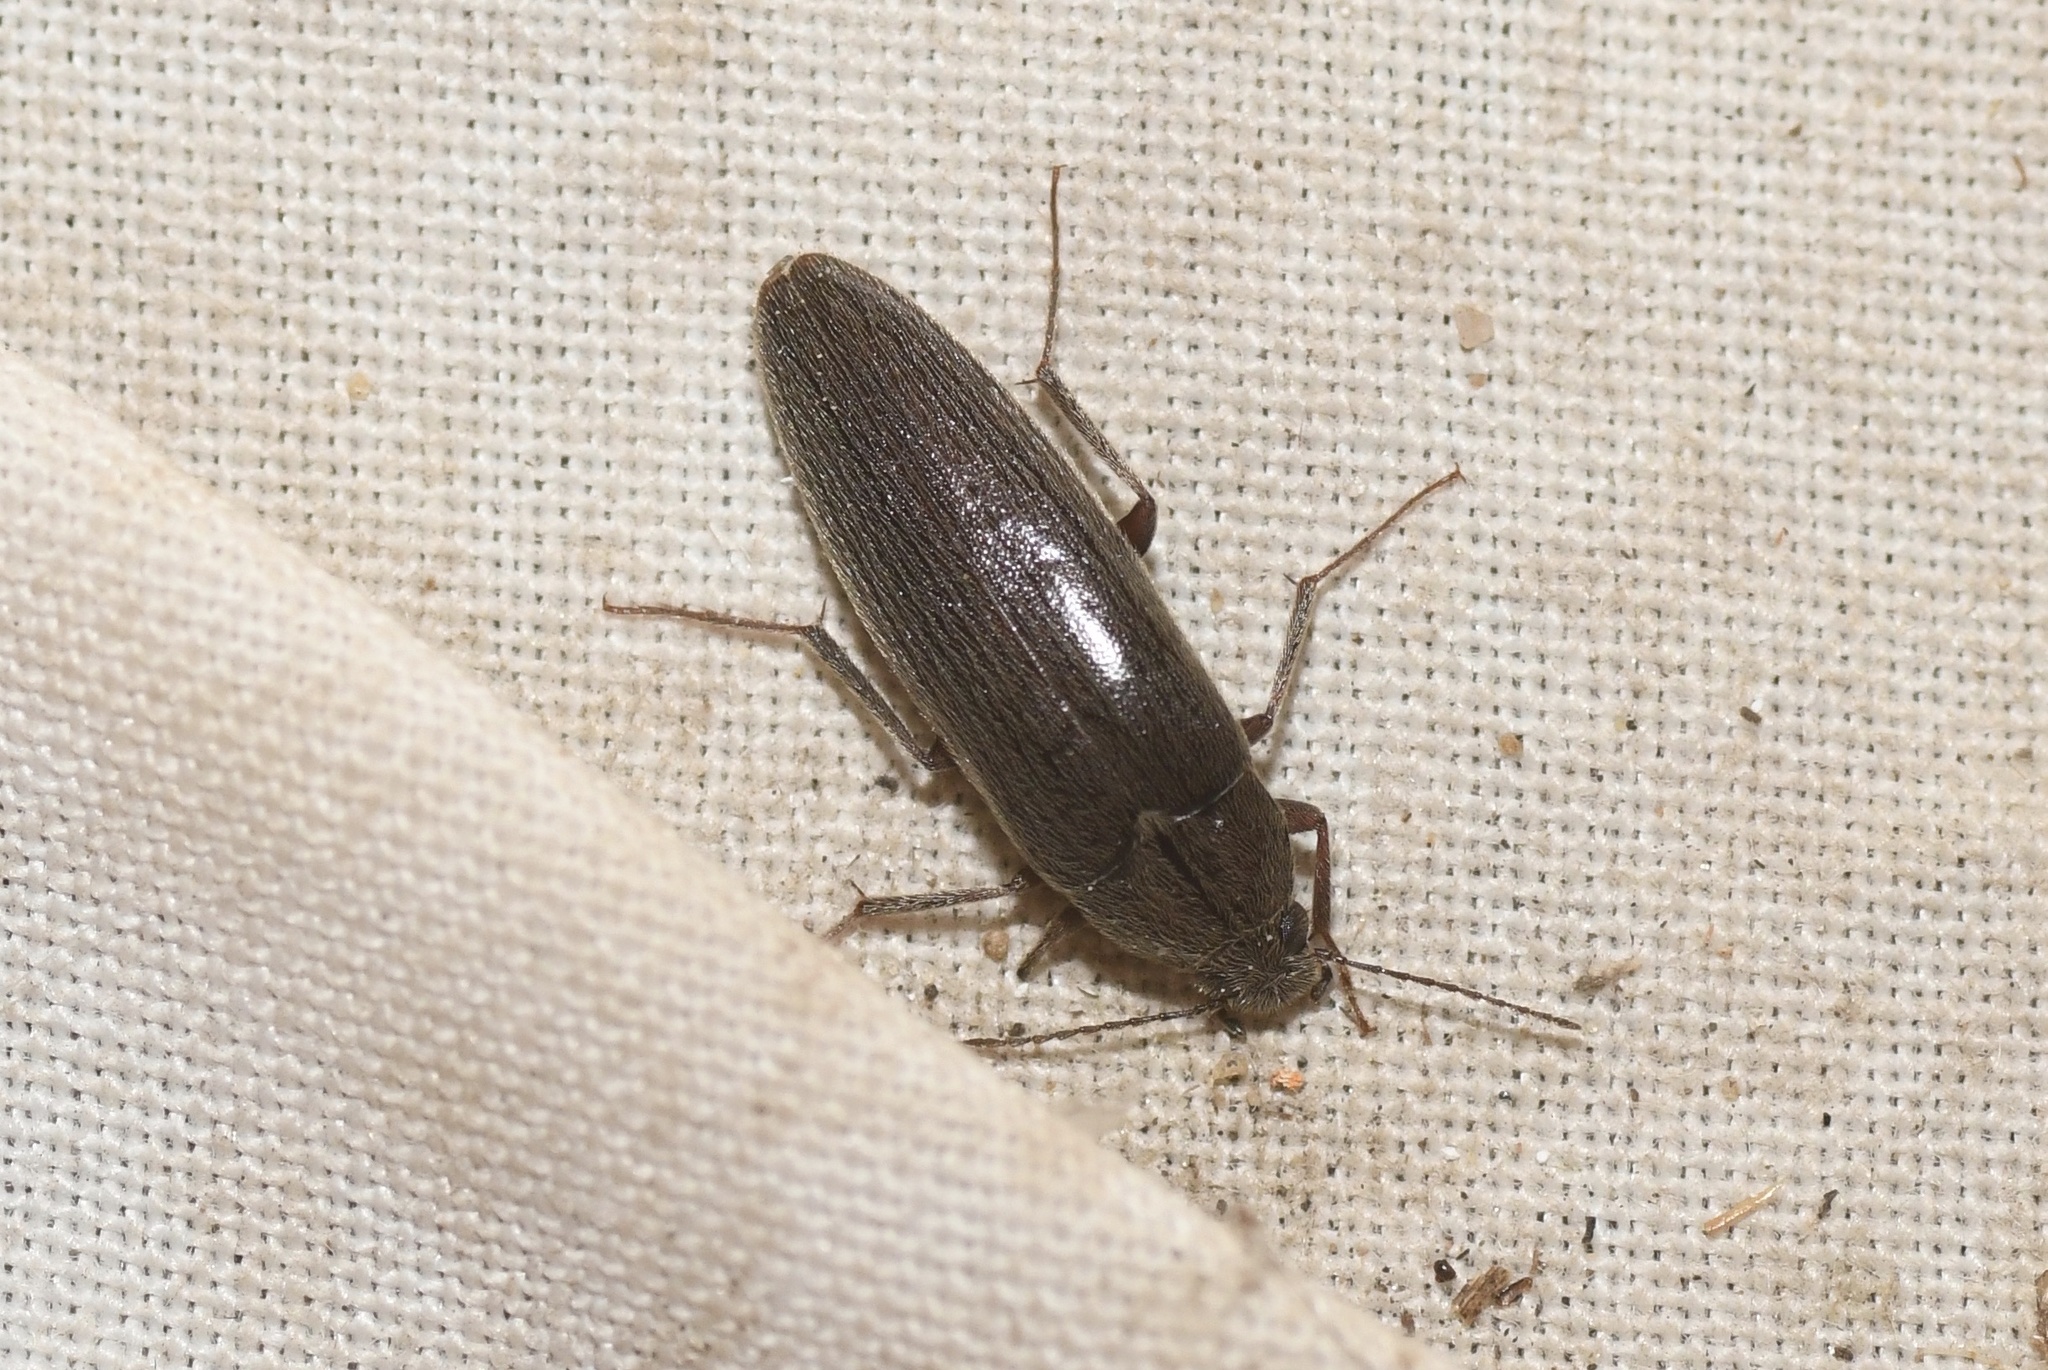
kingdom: Animalia
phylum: Arthropoda
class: Insecta
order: Coleoptera
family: Synchroidae
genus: Synchroa
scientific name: Synchroa punctata
